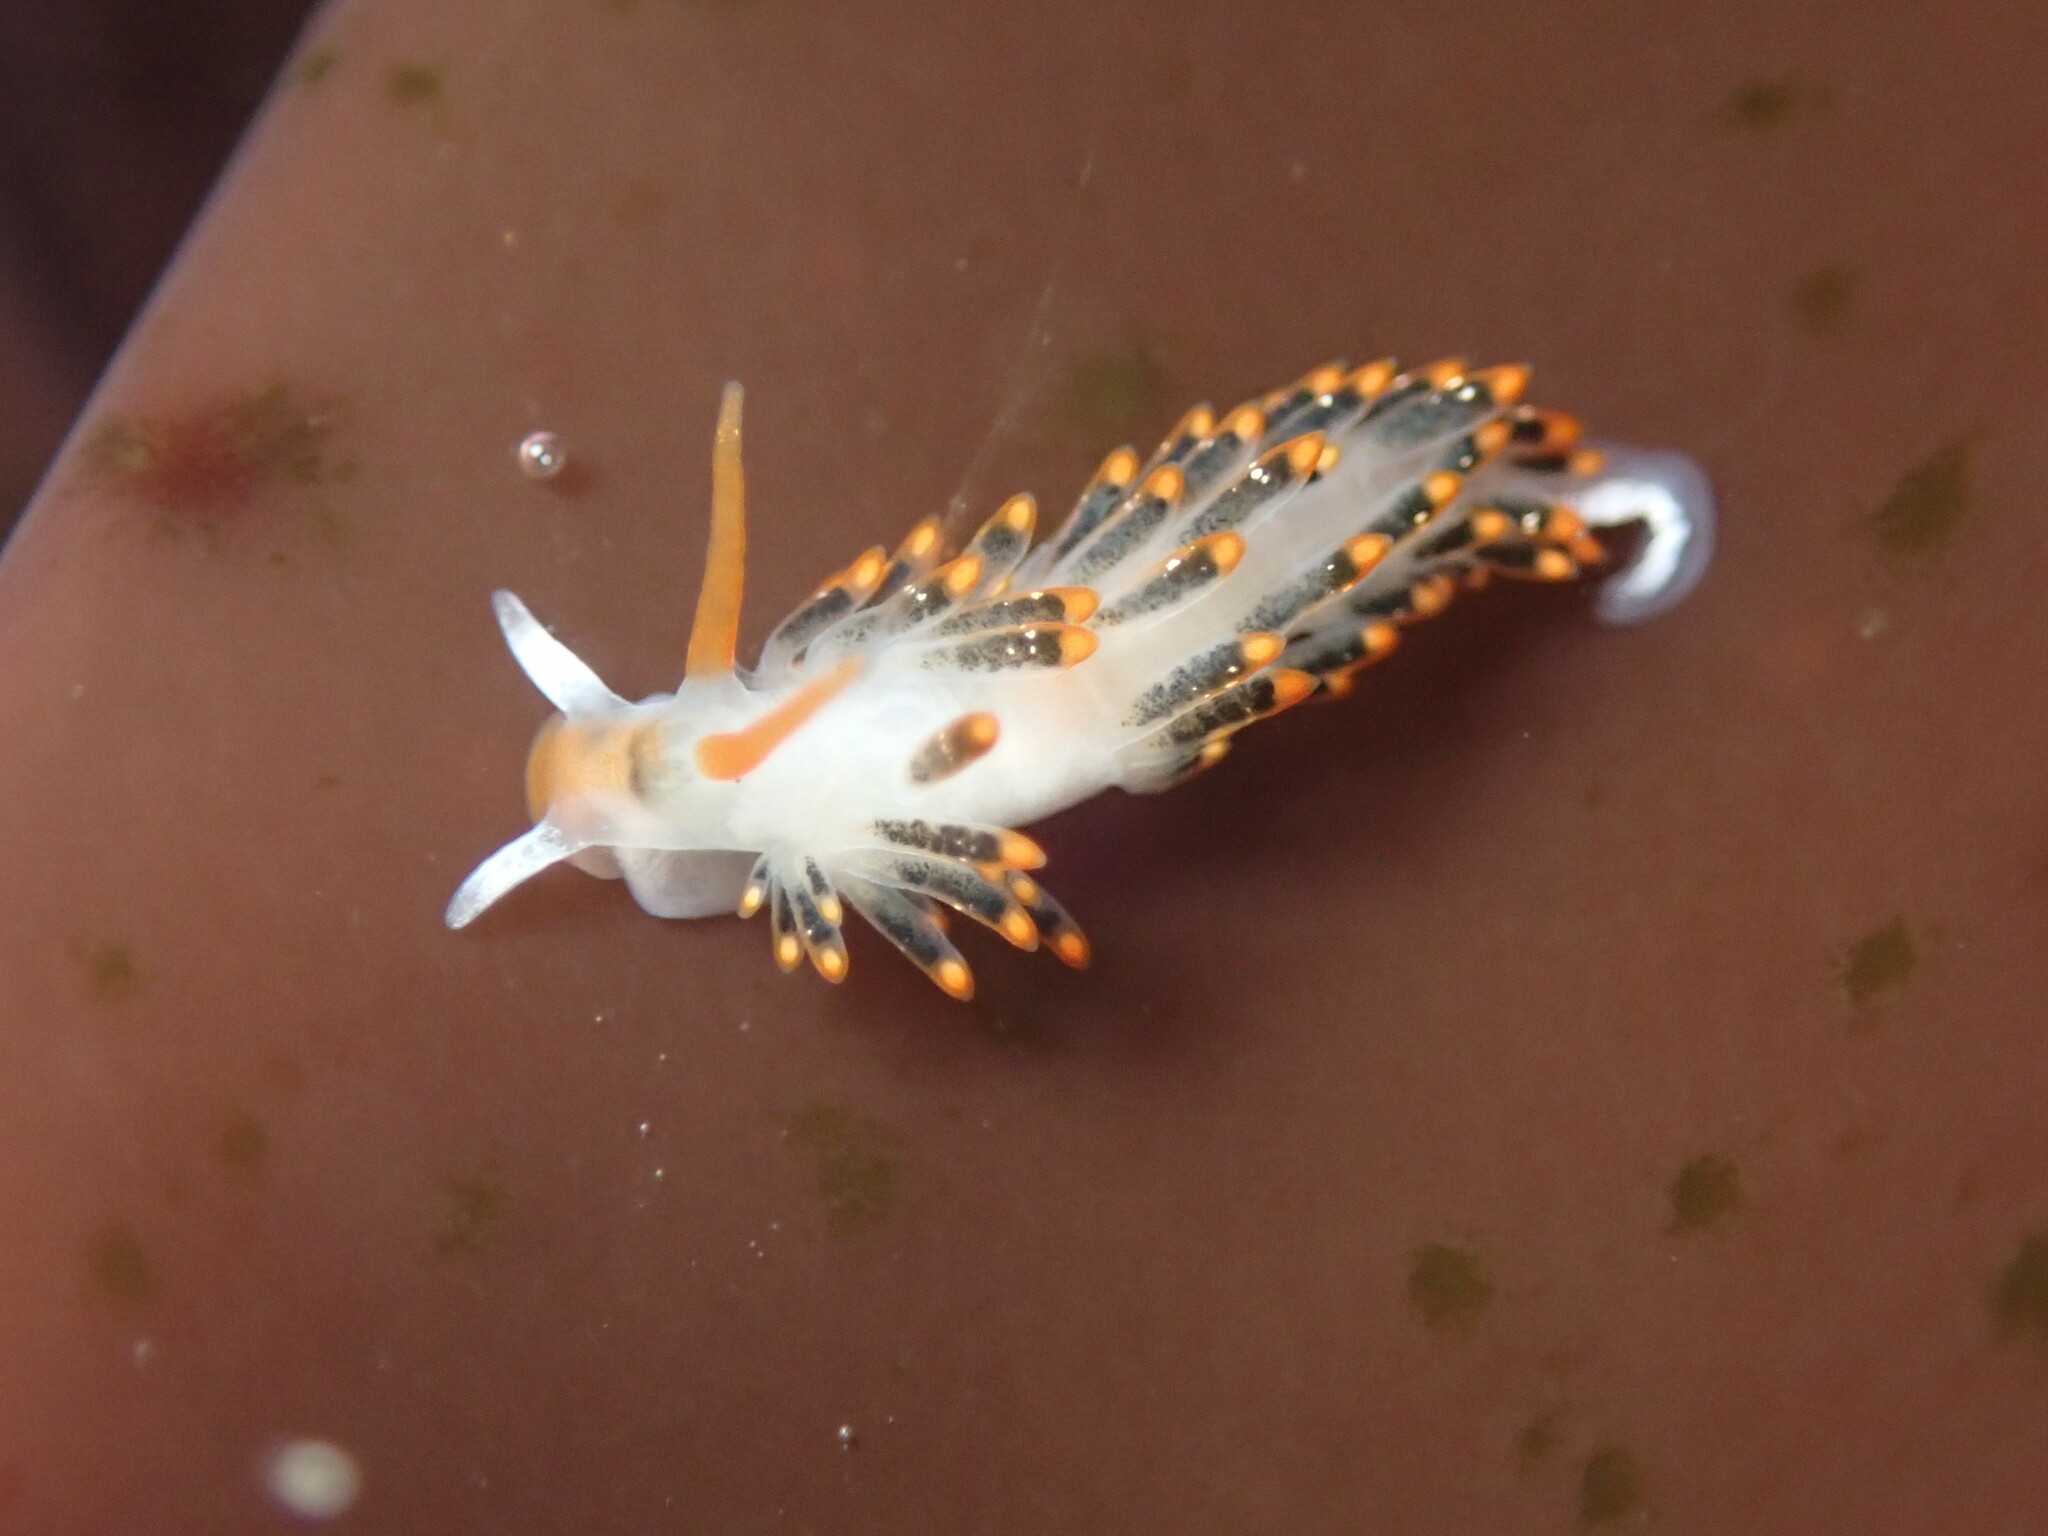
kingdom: Animalia
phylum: Mollusca
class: Gastropoda
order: Nudibranchia
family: Trinchesiidae
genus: Diaphoreolis
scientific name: Diaphoreolis lagunae
